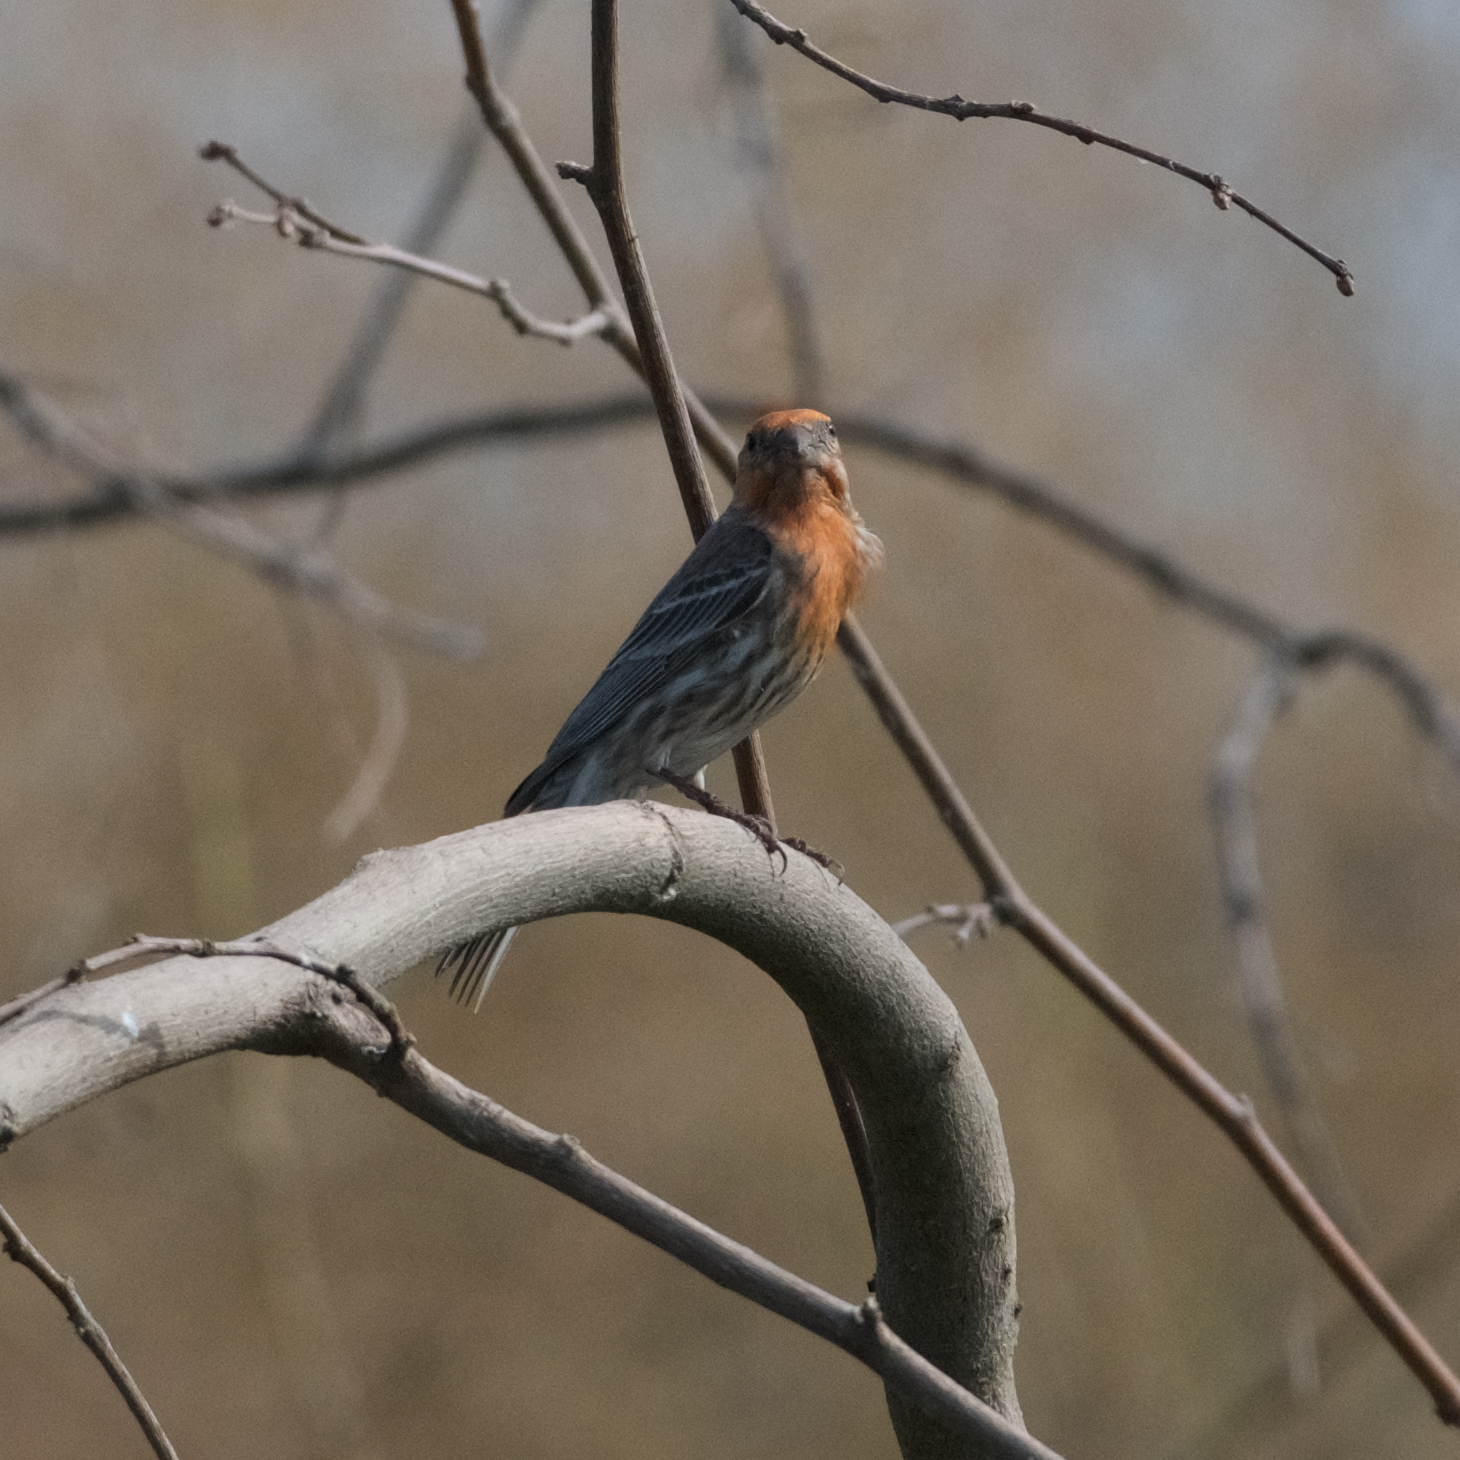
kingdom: Animalia
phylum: Chordata
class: Aves
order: Passeriformes
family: Fringillidae
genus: Haemorhous
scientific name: Haemorhous mexicanus
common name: House finch
